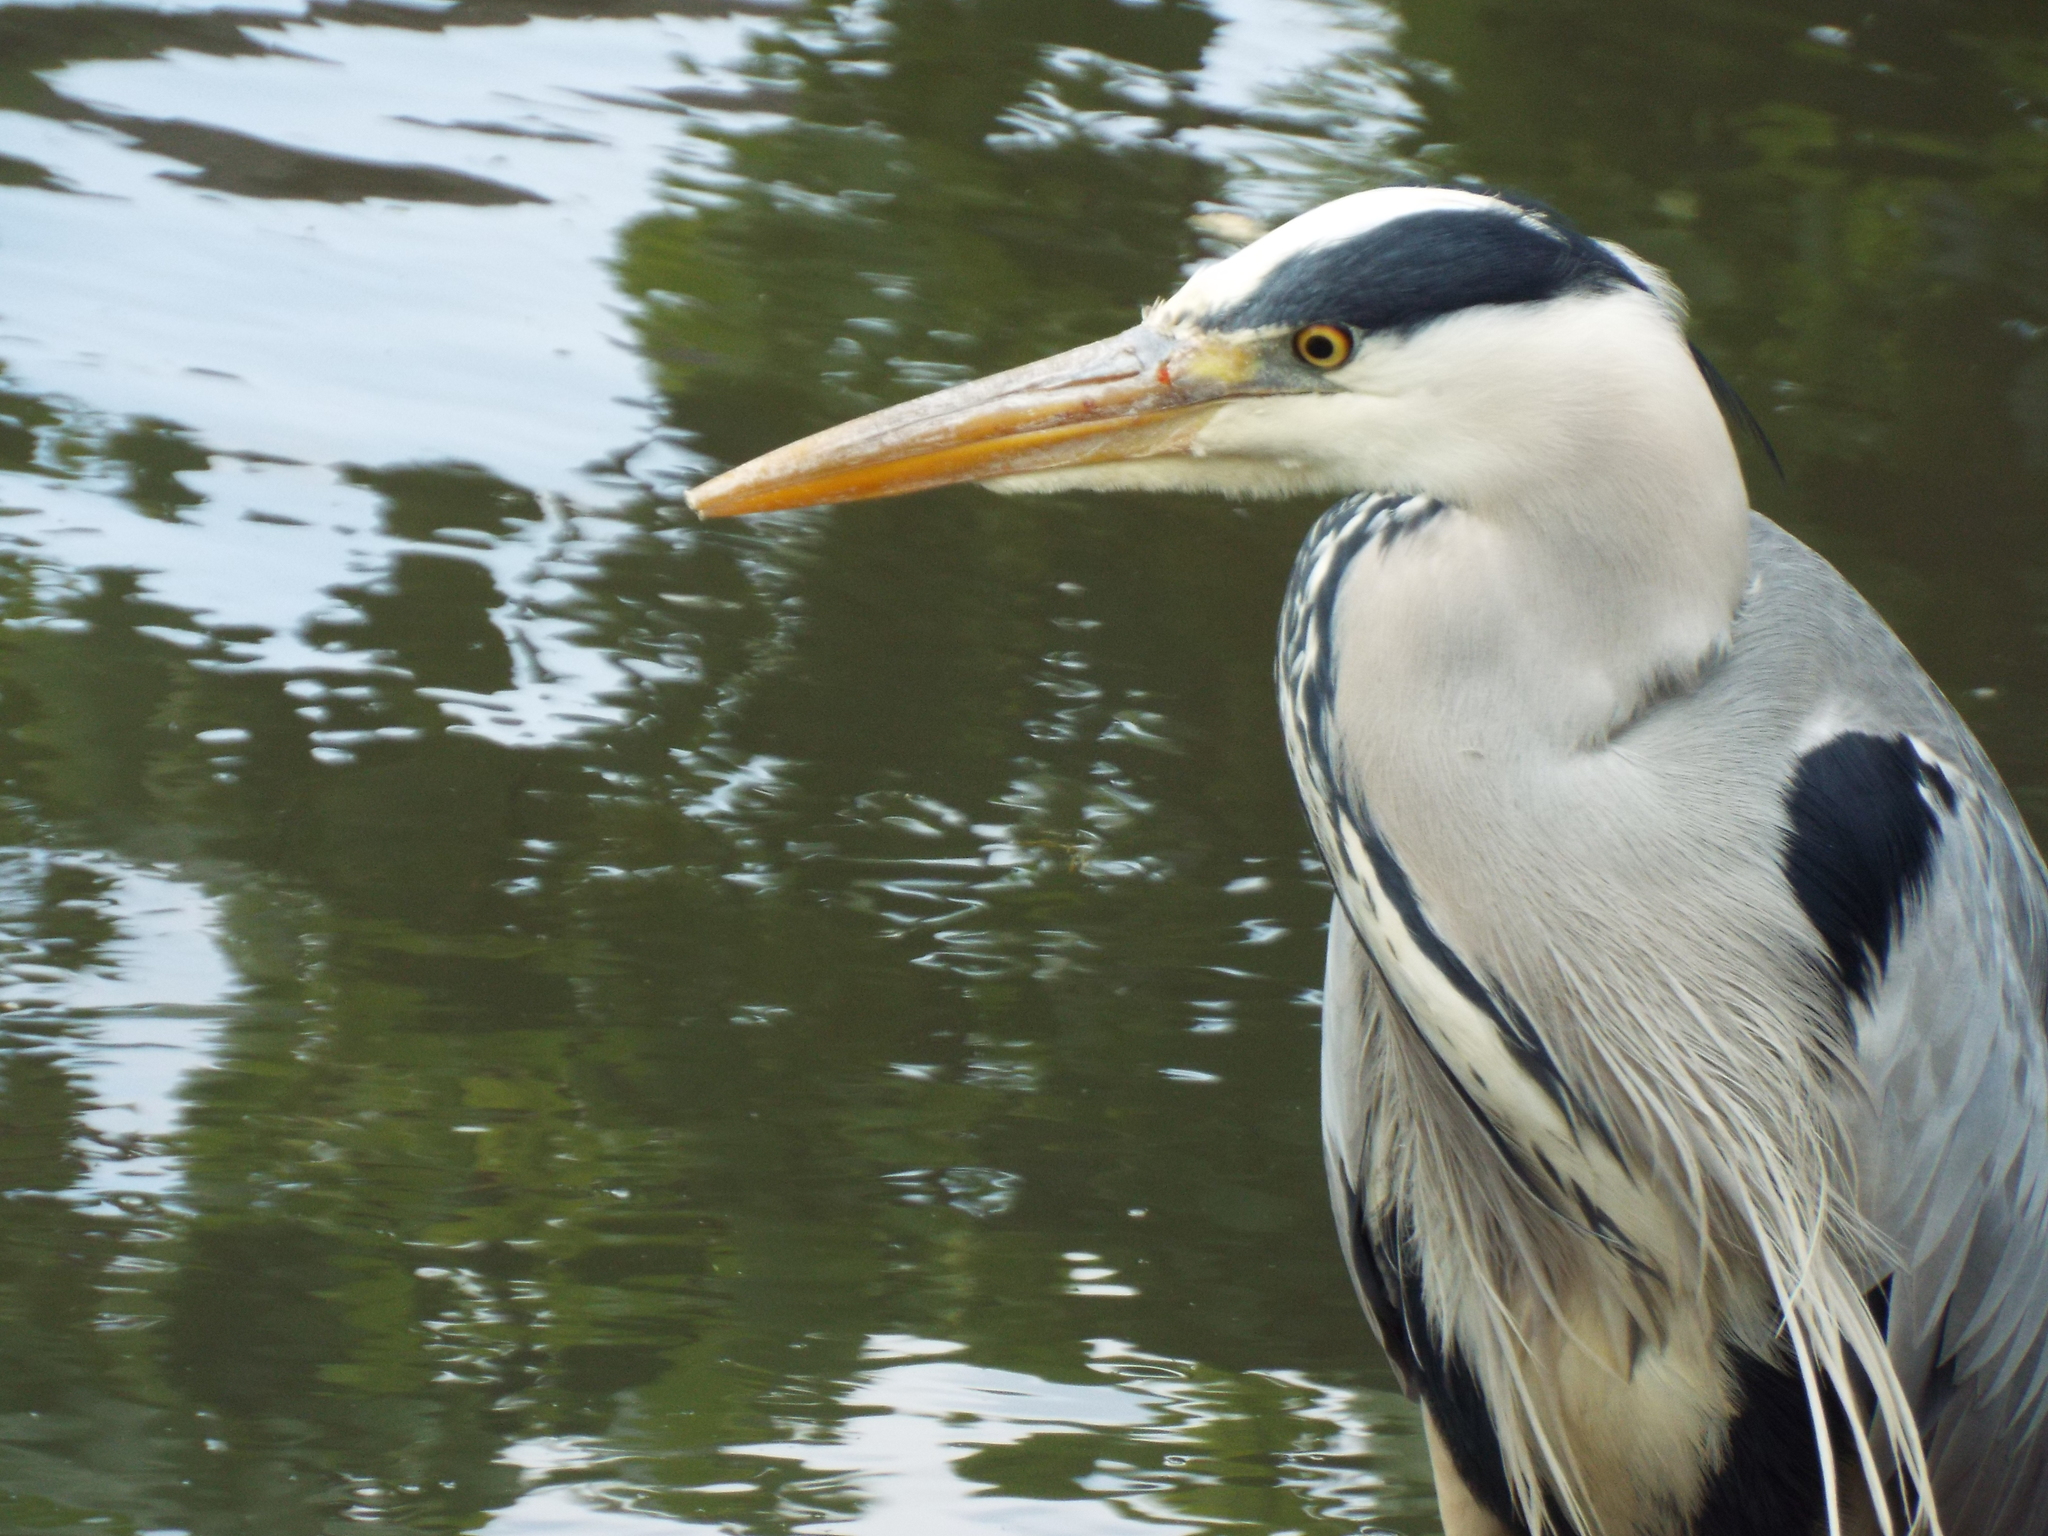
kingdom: Animalia
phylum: Chordata
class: Aves
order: Pelecaniformes
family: Ardeidae
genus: Ardea
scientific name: Ardea cinerea
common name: Grey heron
